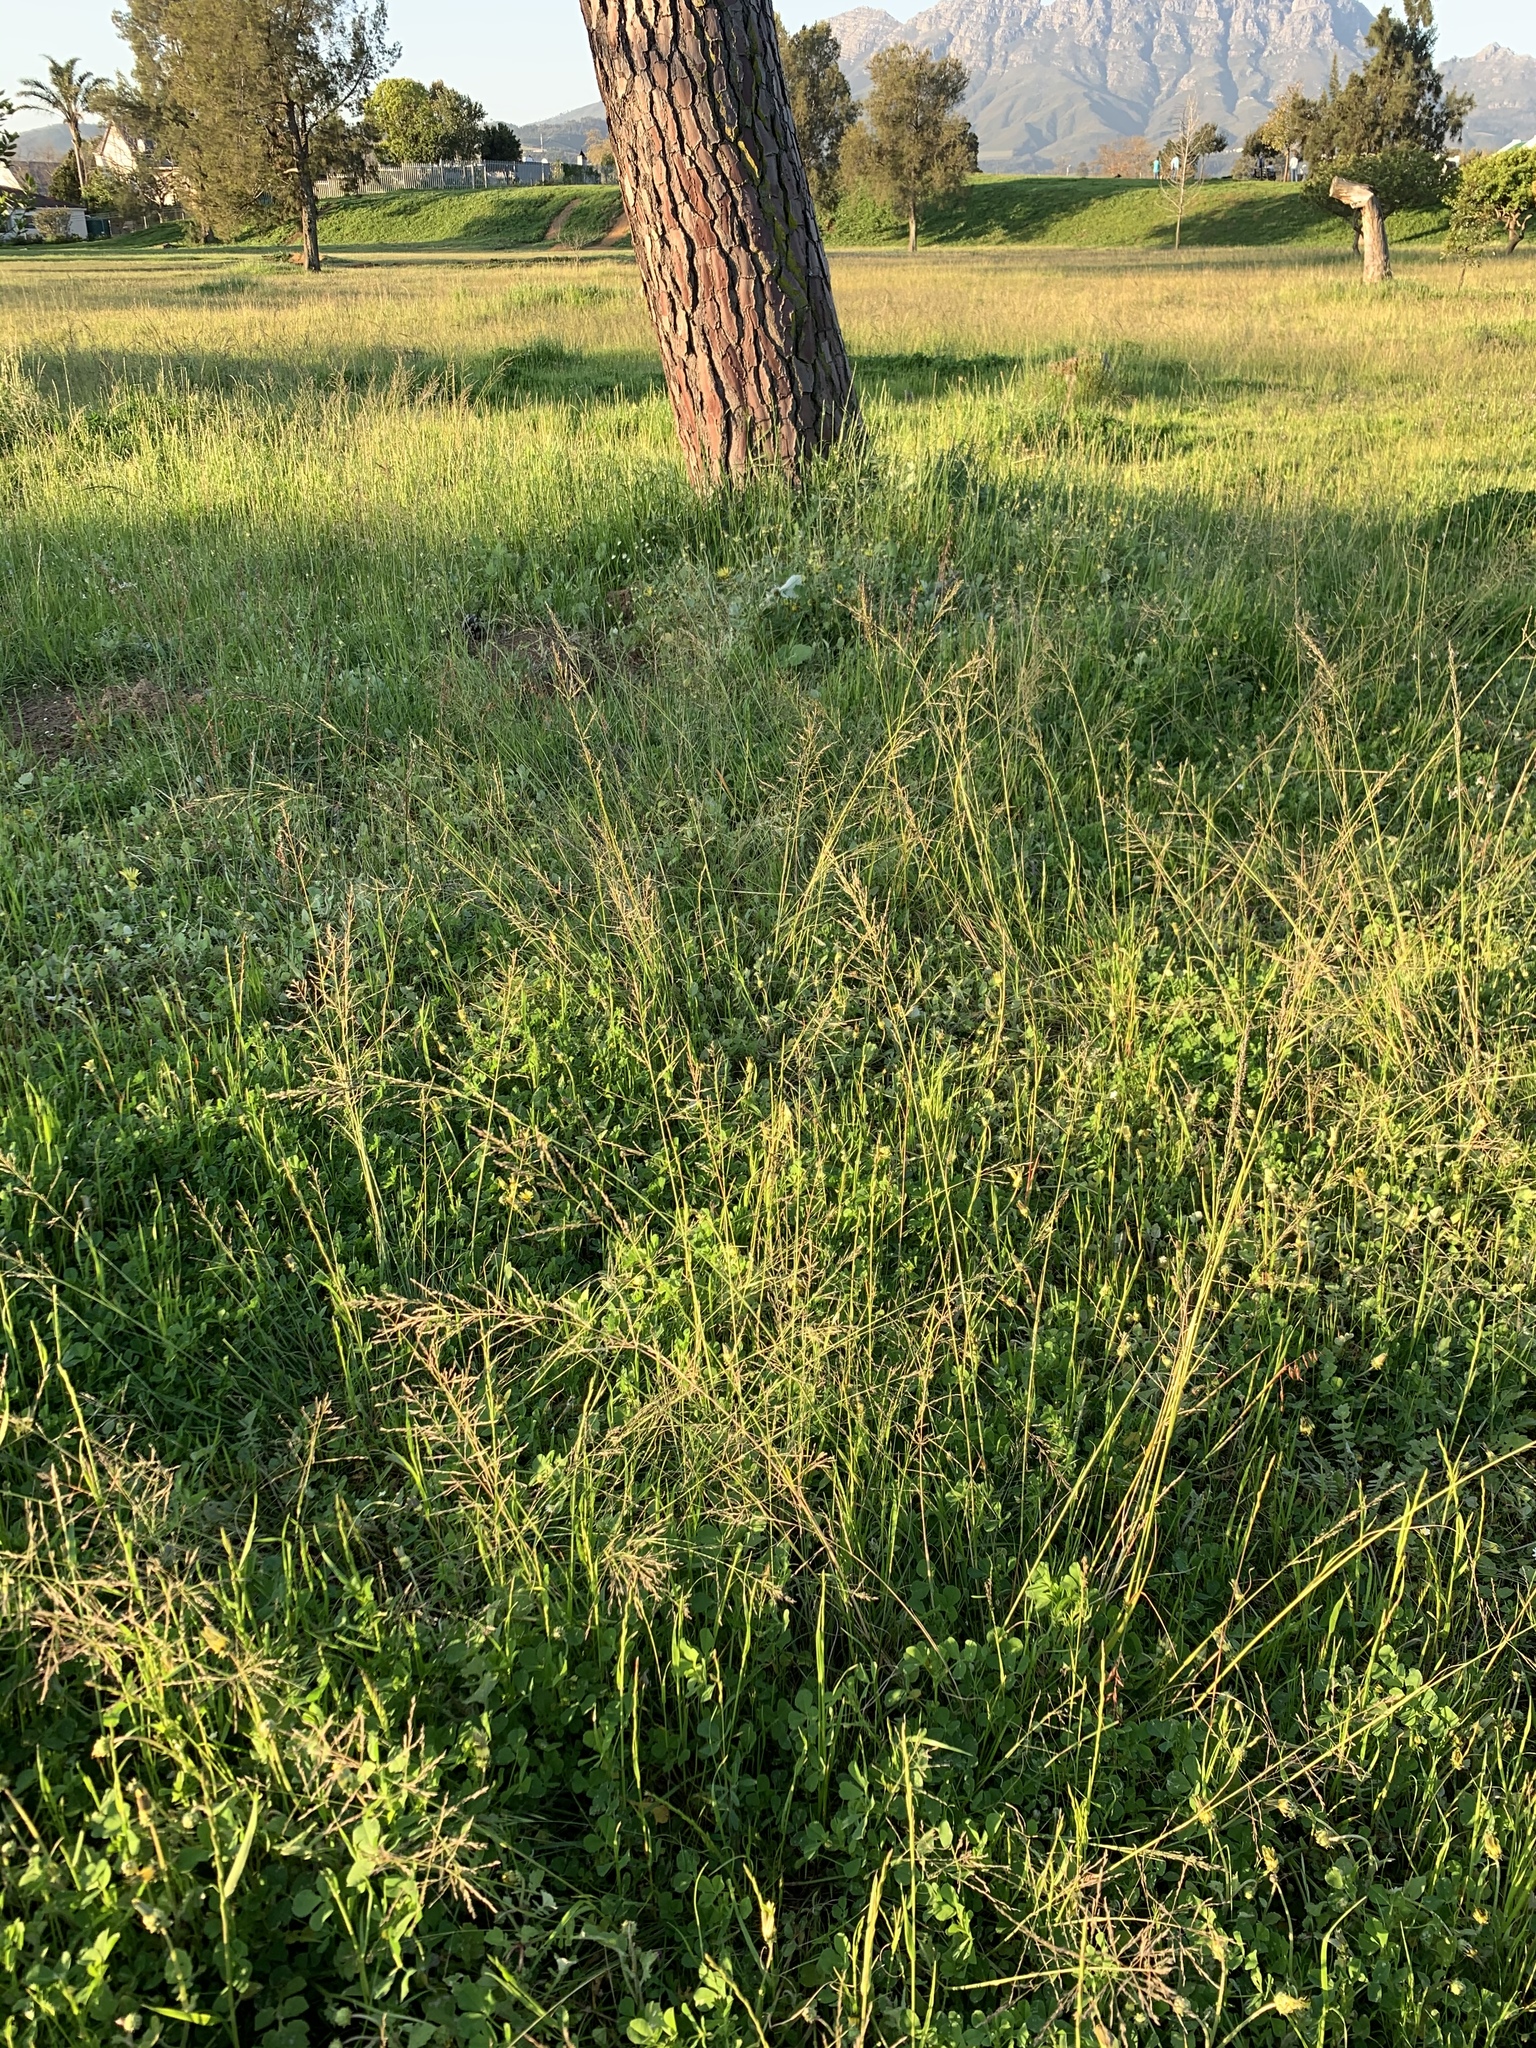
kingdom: Plantae
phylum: Tracheophyta
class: Liliopsida
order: Poales
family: Poaceae
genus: Eragrostis
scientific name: Eragrostis curvula
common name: African love-grass
